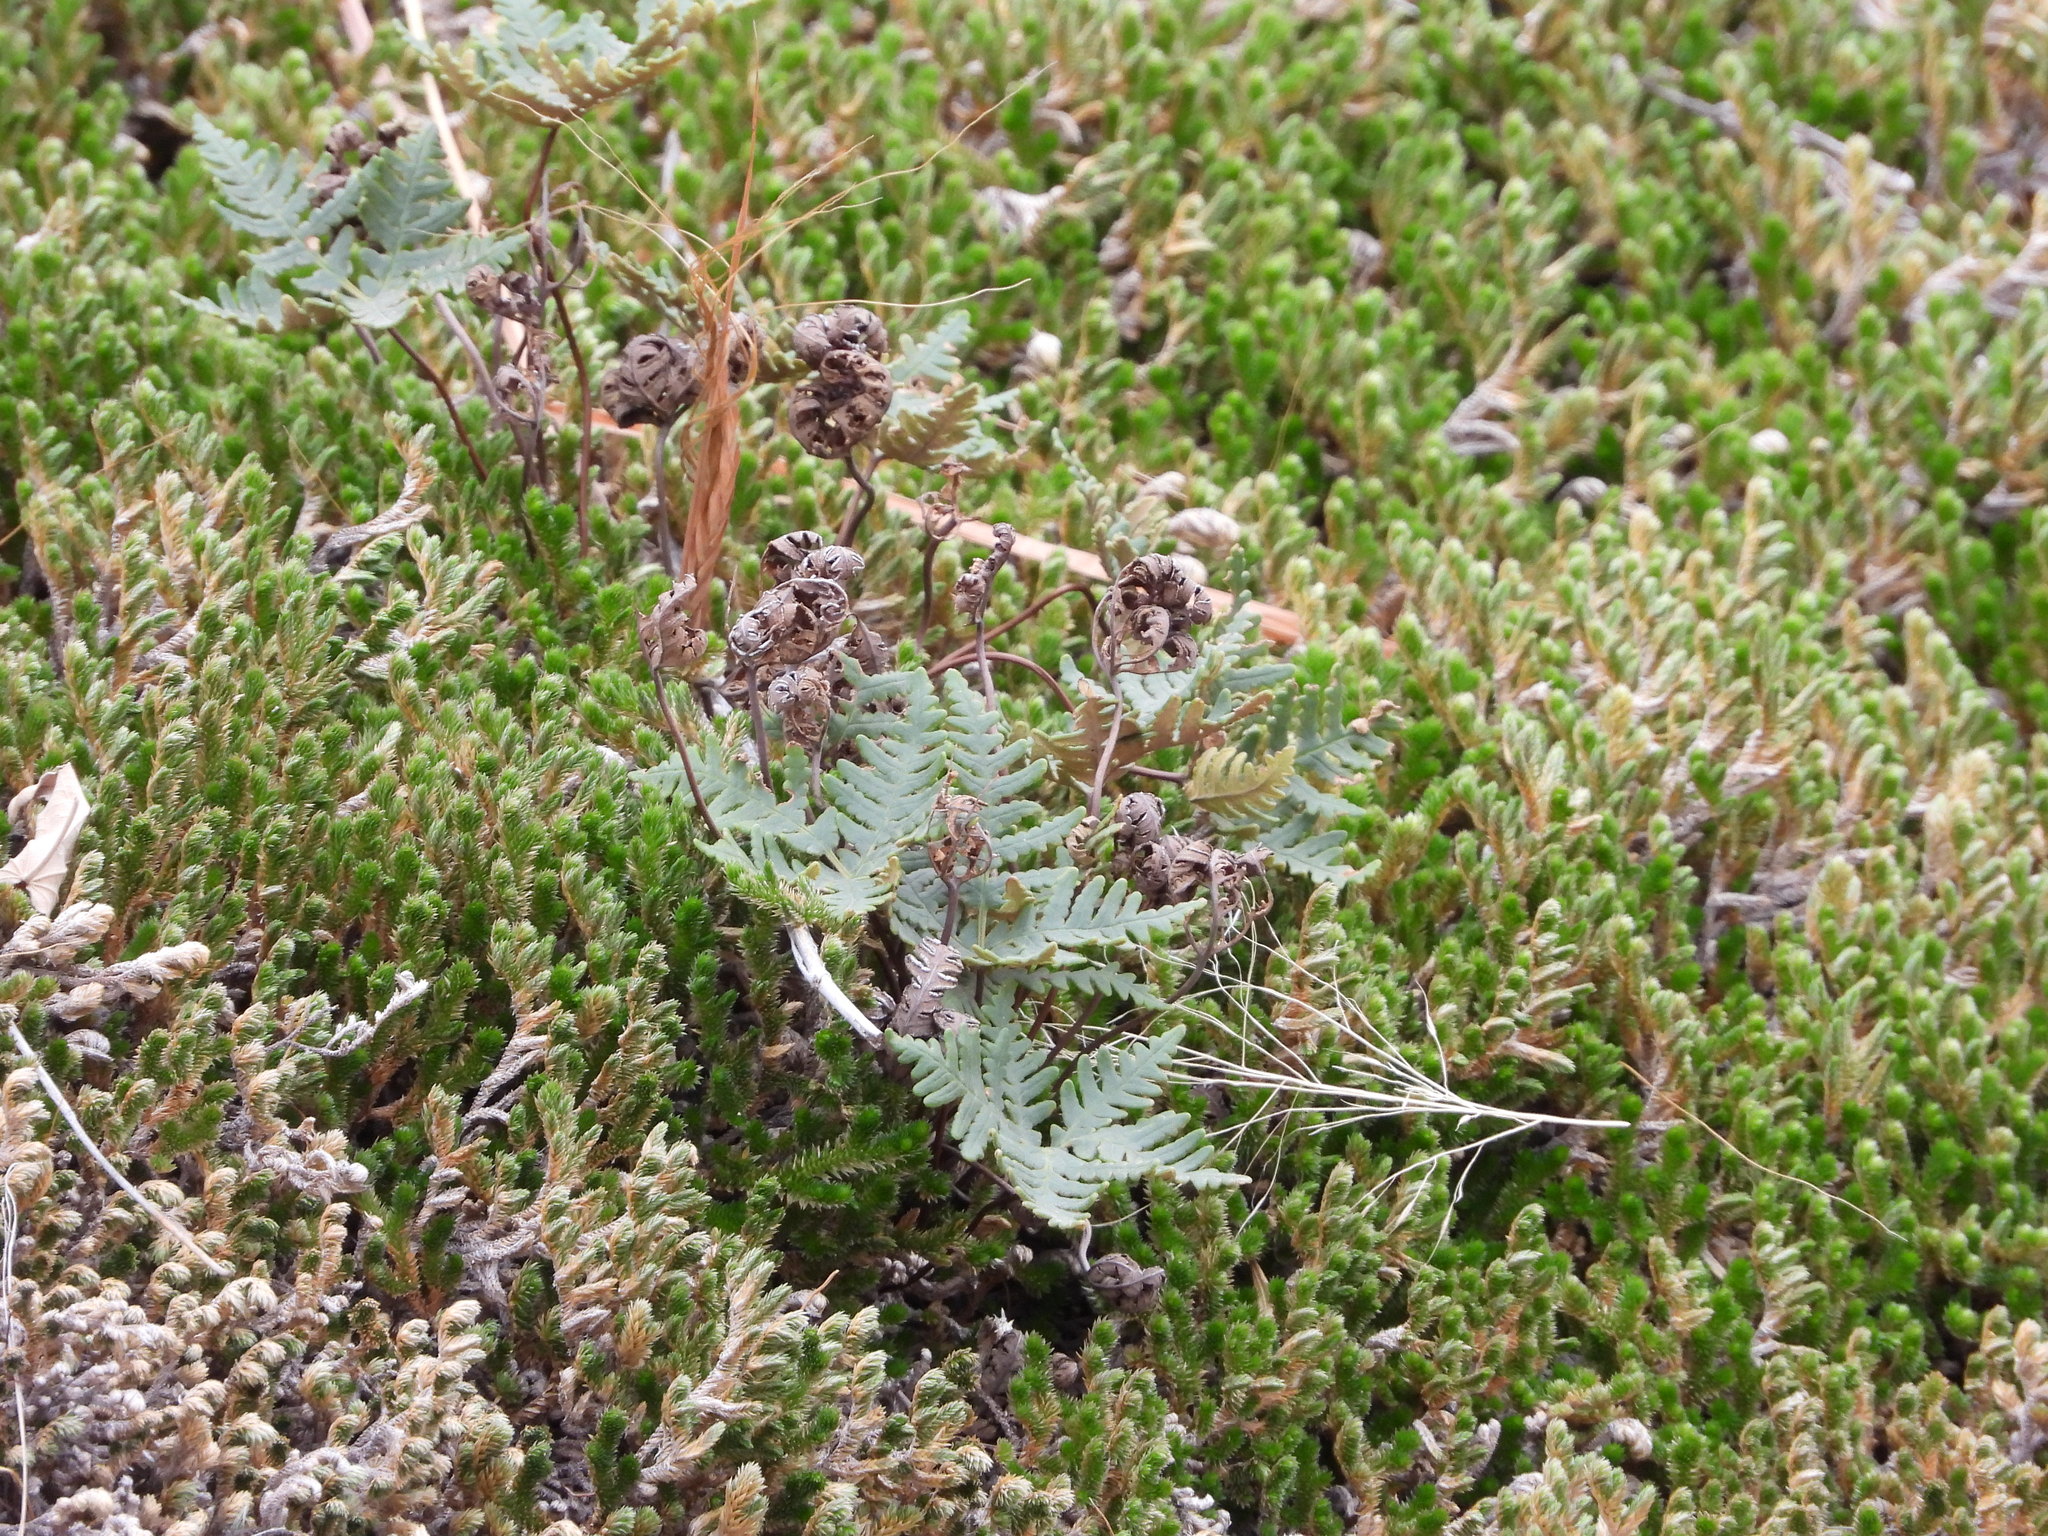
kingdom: Plantae
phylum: Tracheophyta
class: Polypodiopsida
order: Polypodiales
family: Pteridaceae
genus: Notholaena
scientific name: Notholaena standleyi
